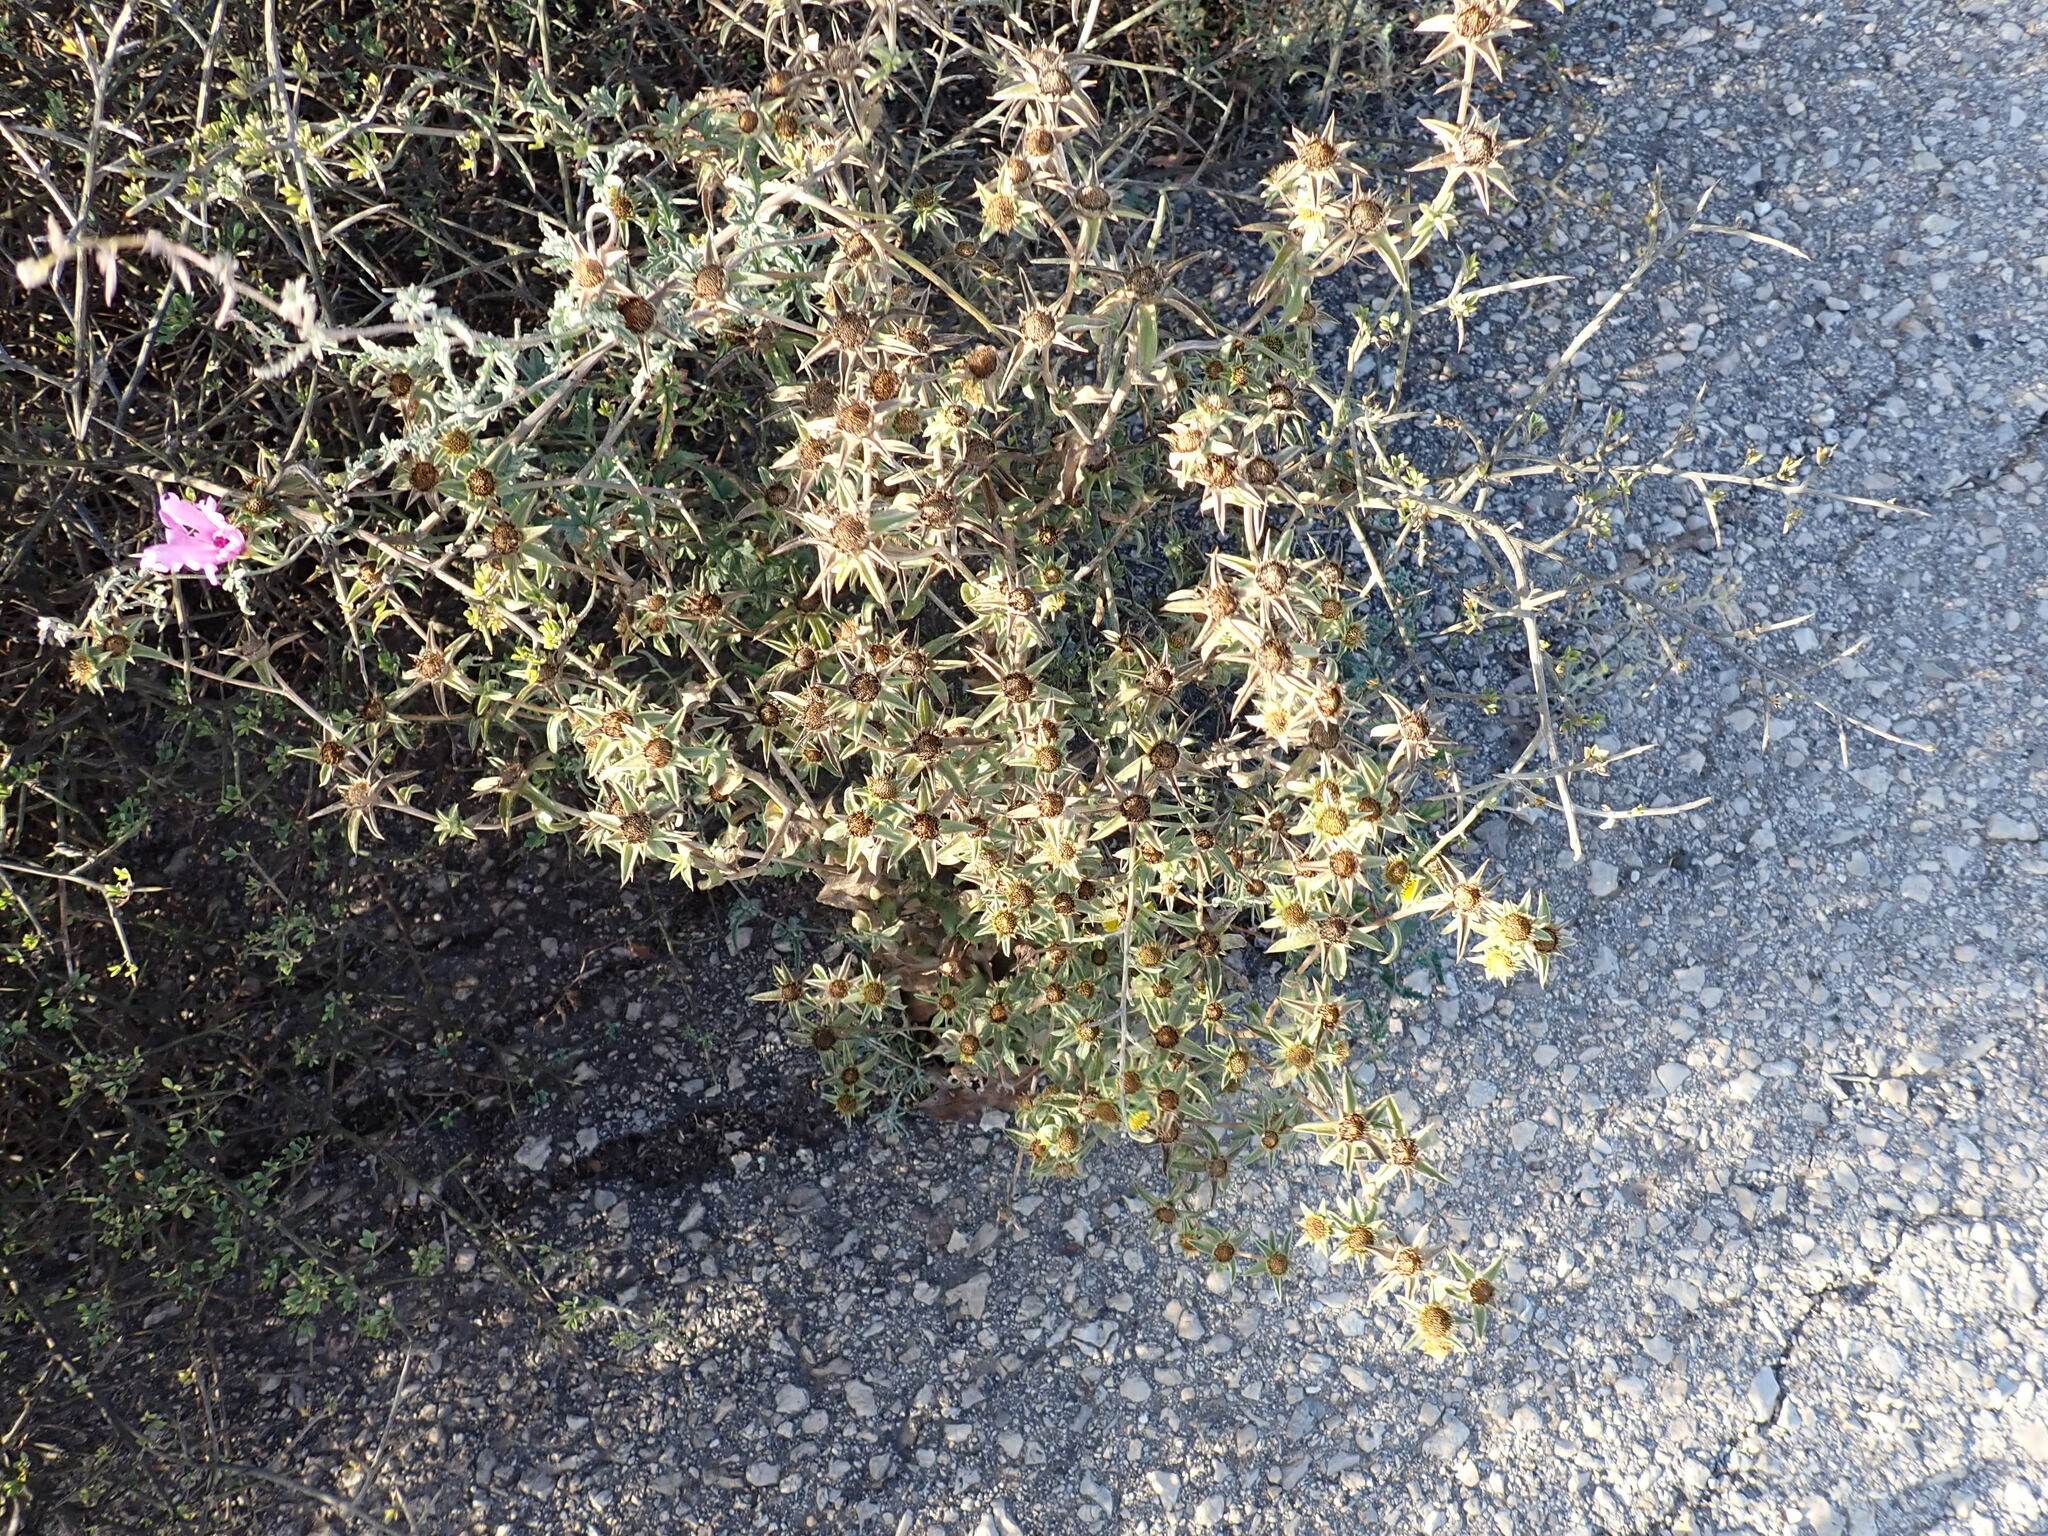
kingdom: Plantae
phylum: Tracheophyta
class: Magnoliopsida
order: Asterales
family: Asteraceae
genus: Pallenis
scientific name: Pallenis spinosa
